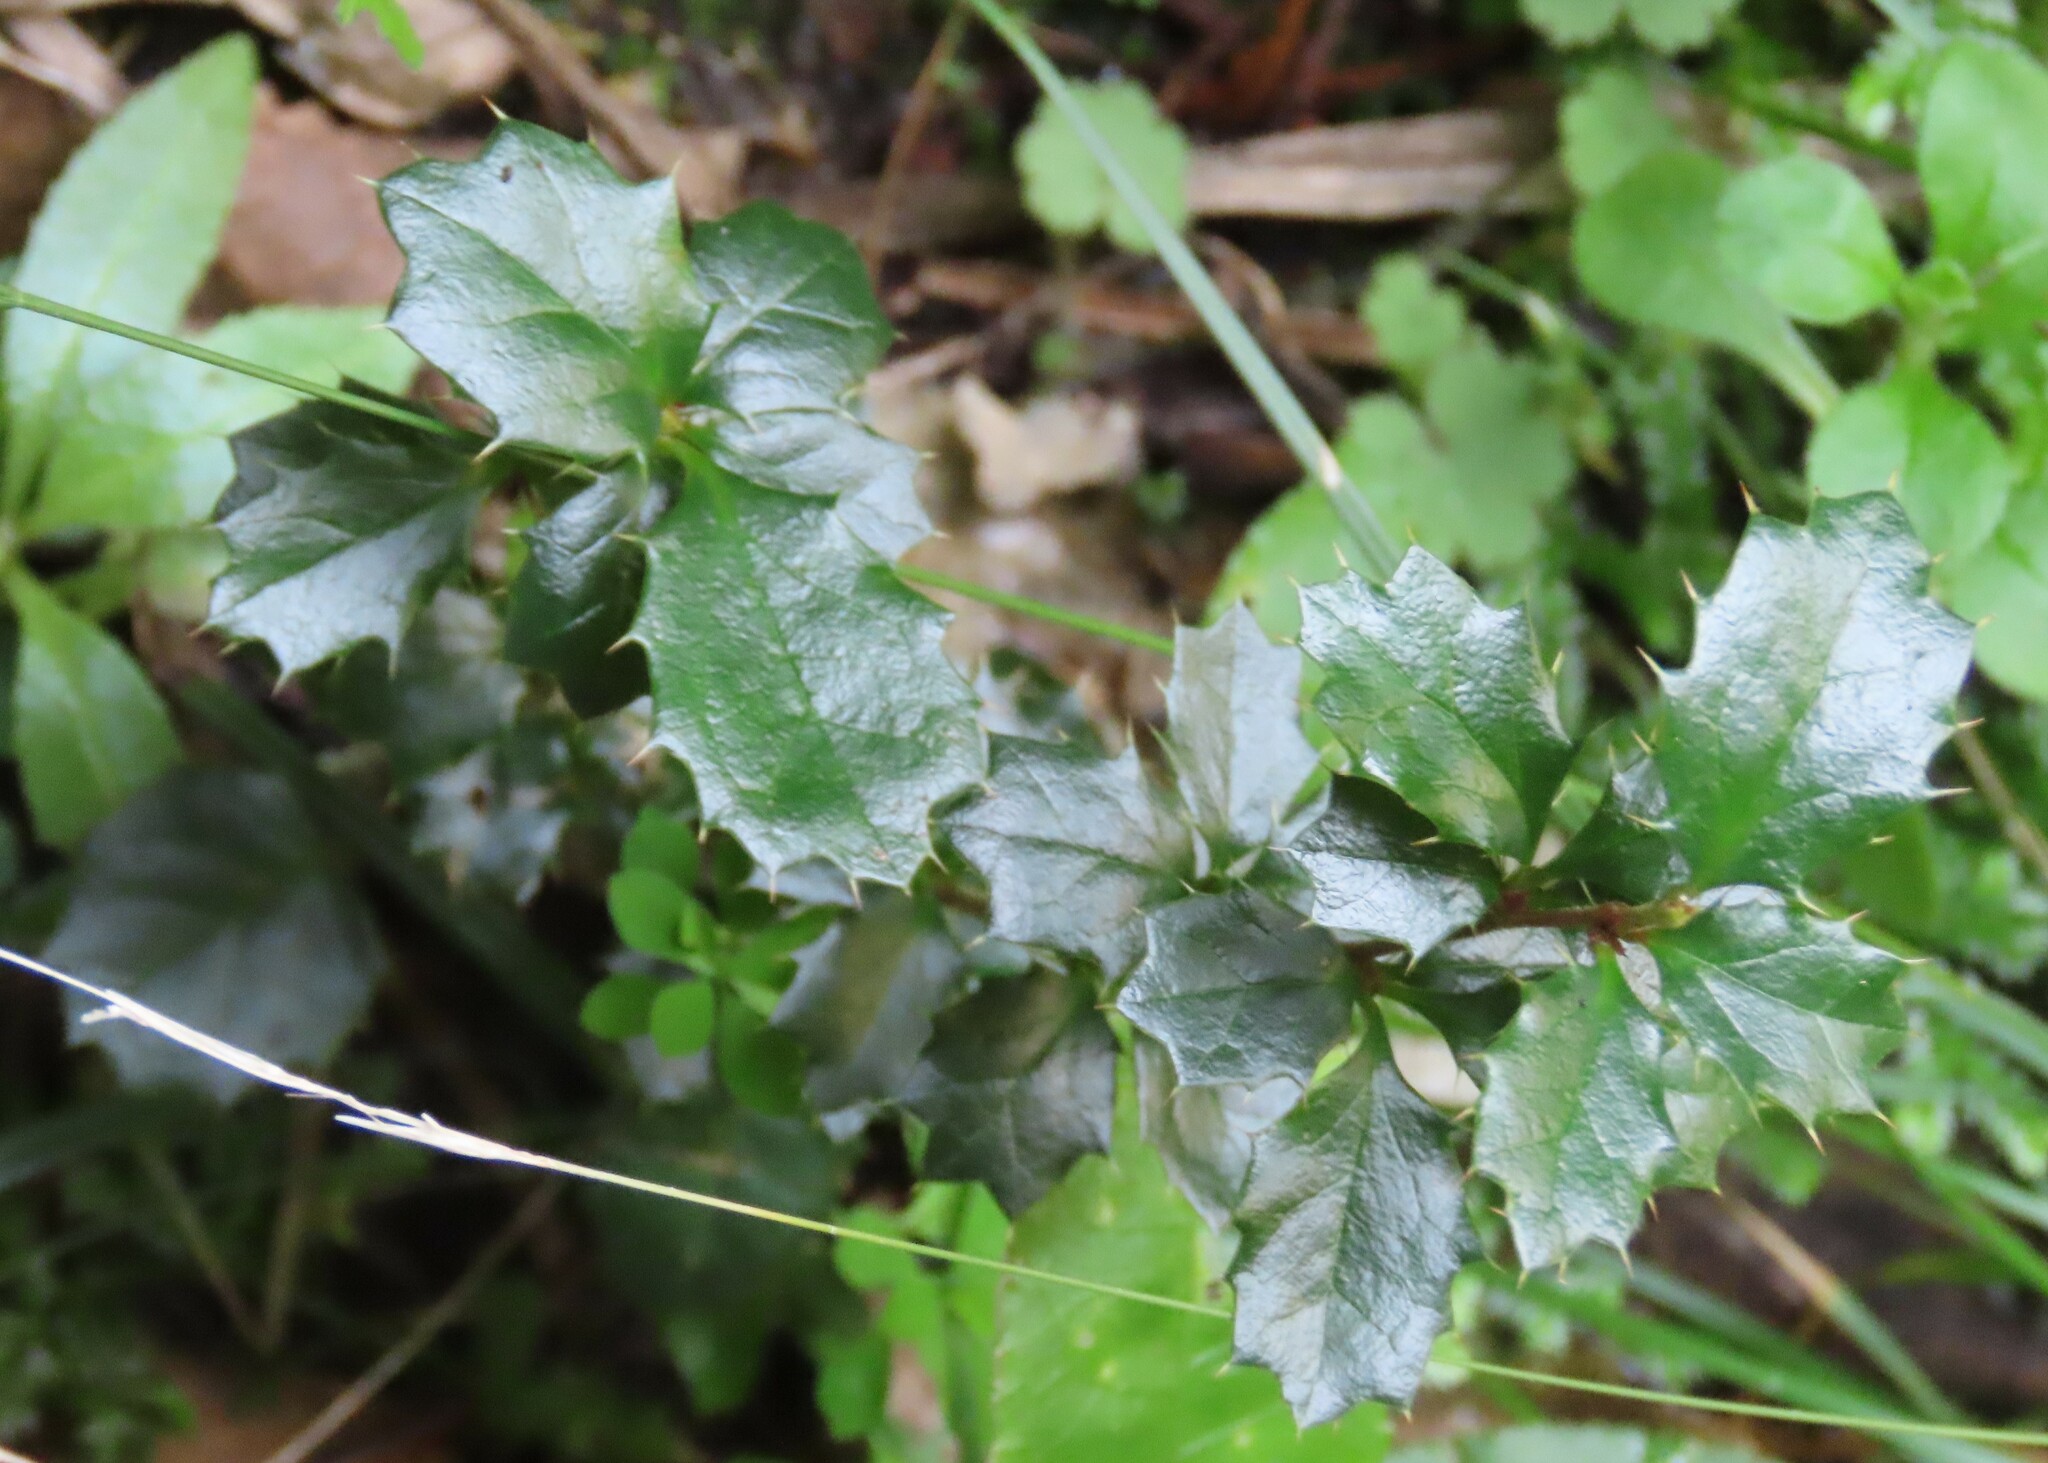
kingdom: Plantae
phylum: Tracheophyta
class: Magnoliopsida
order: Ranunculales
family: Berberidaceae
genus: Berberis
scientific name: Berberis darwinii
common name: Darwin's barberry
